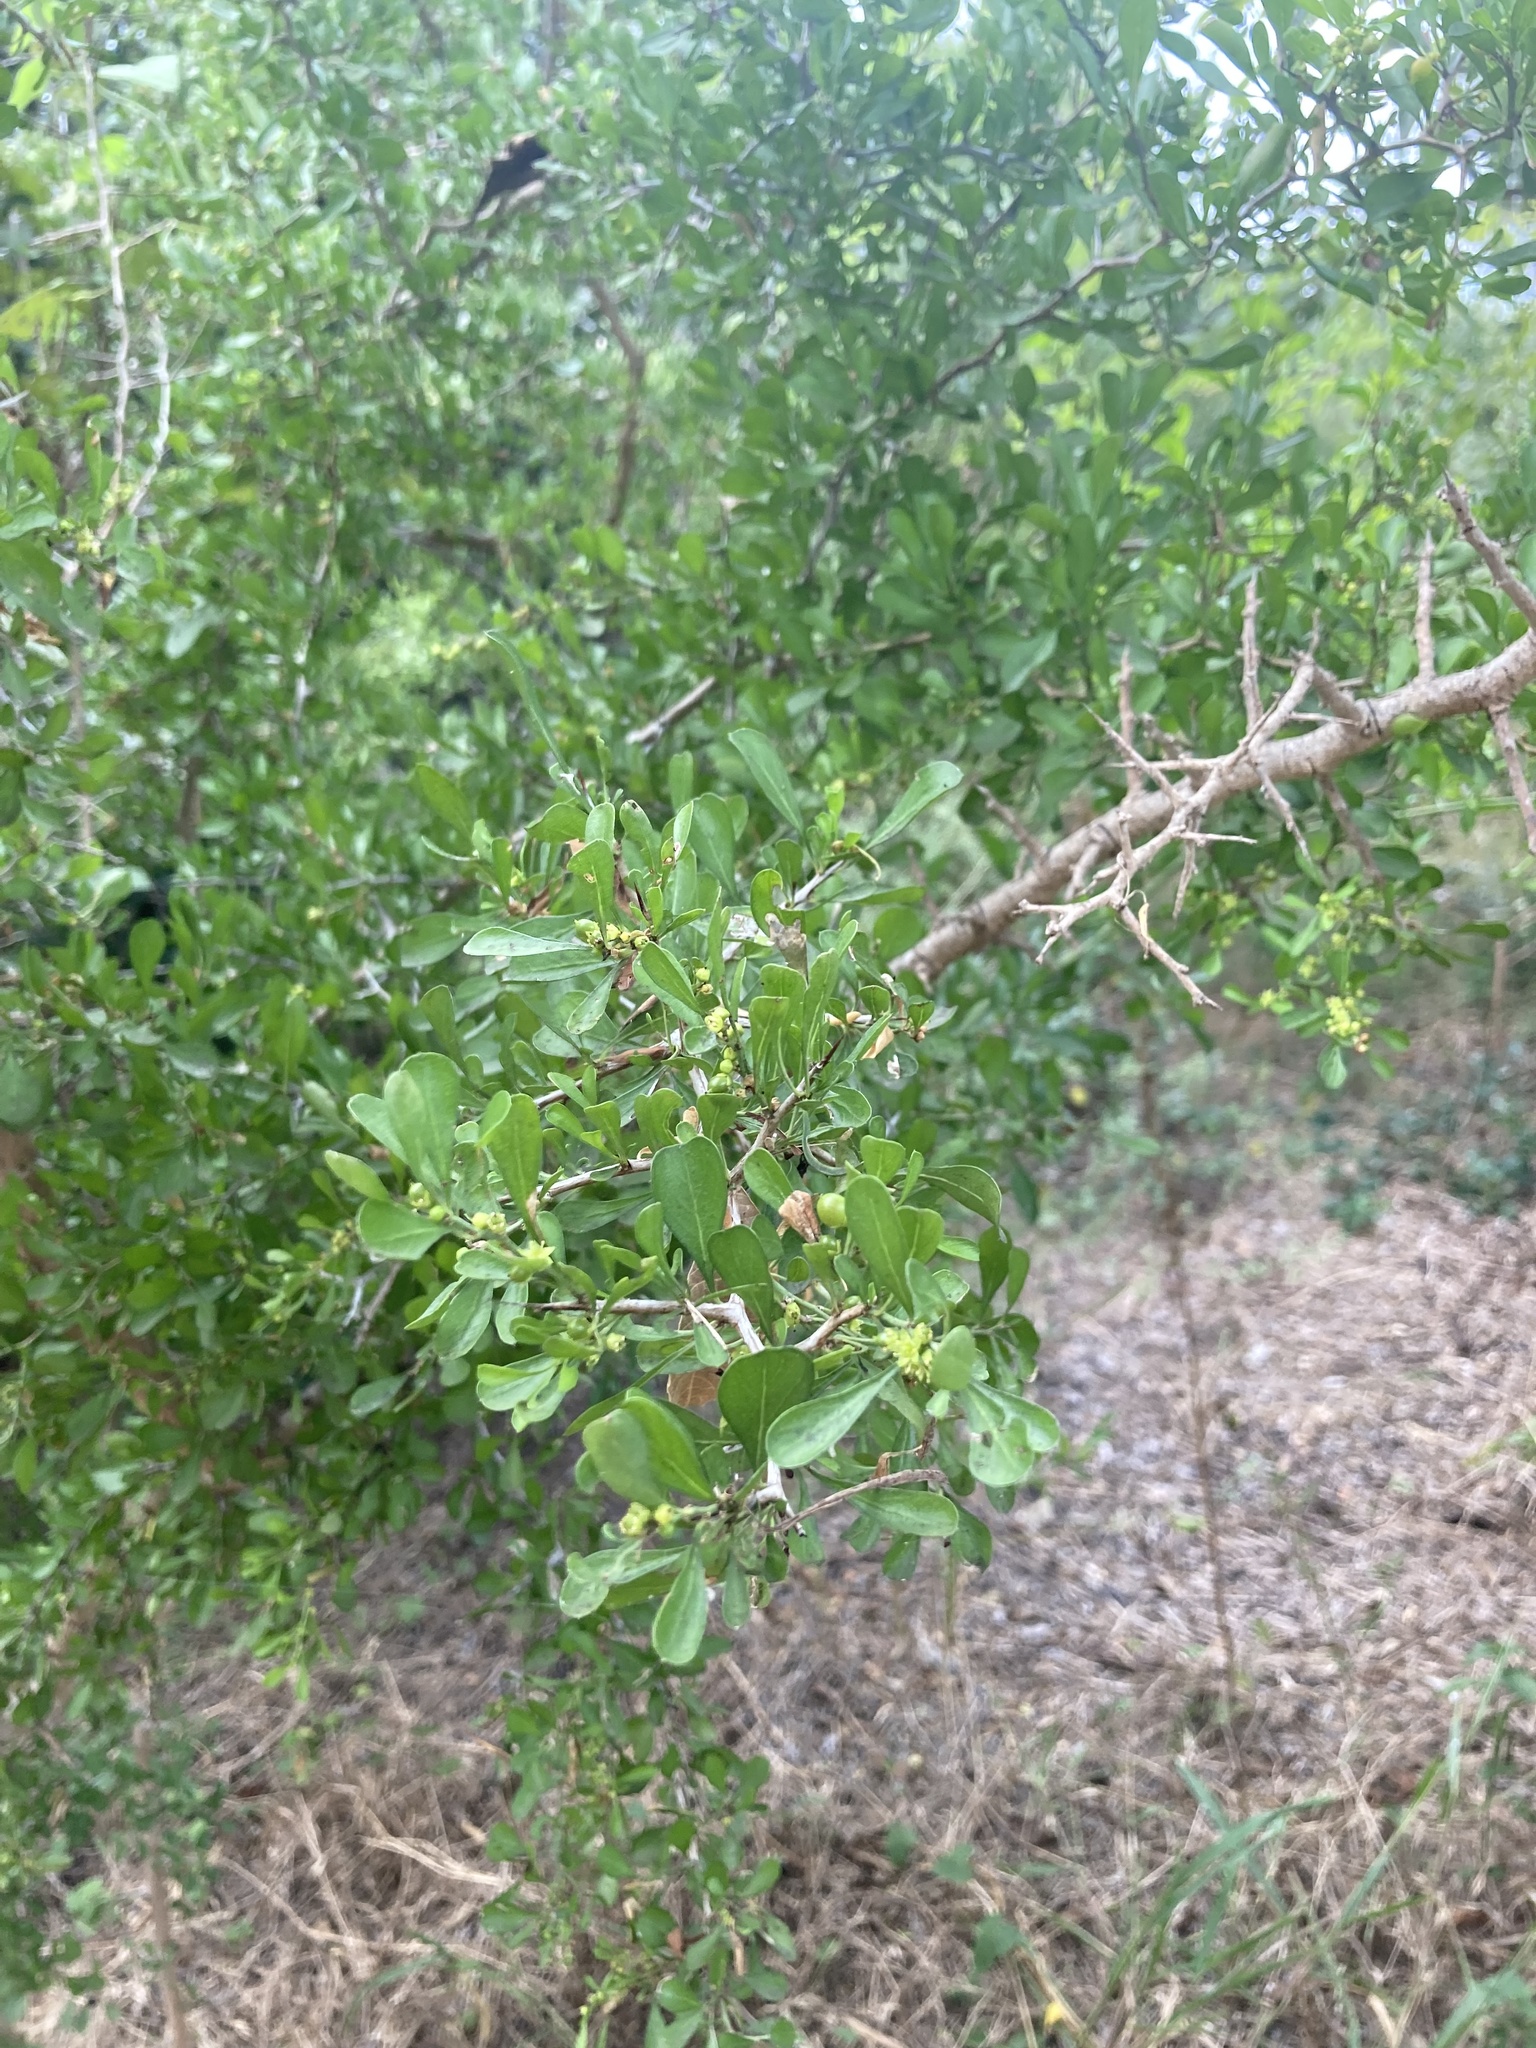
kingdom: Plantae
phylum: Tracheophyta
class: Magnoliopsida
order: Rosales
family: Rhamnaceae
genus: Condalia
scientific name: Condalia hookeri
